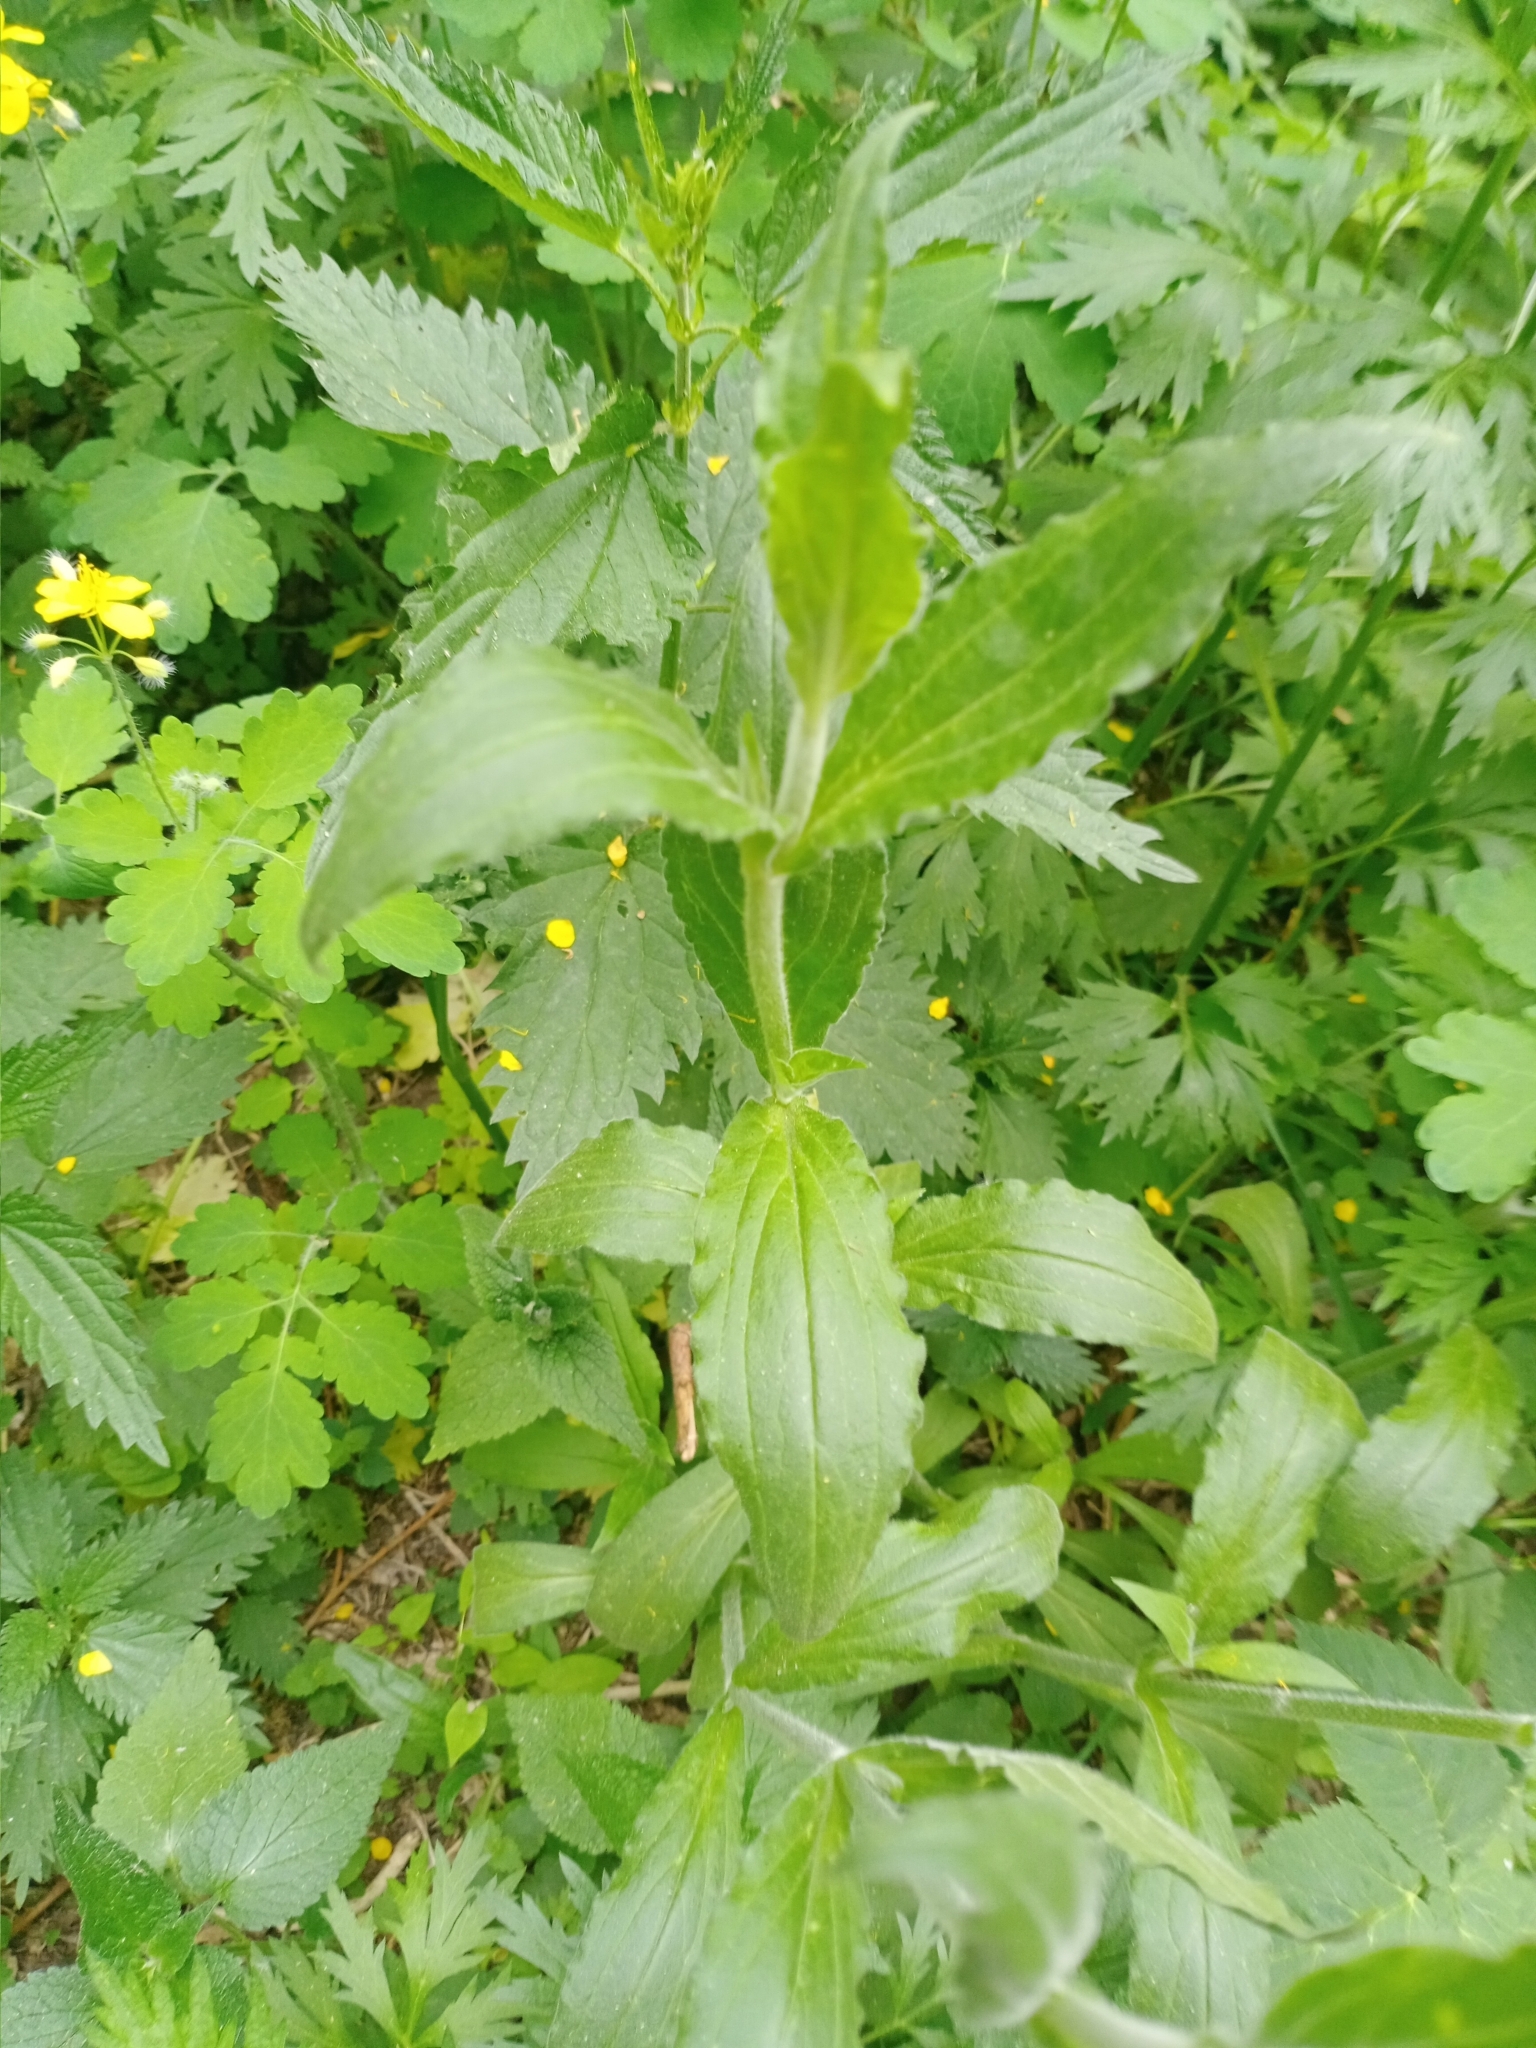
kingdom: Plantae
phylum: Tracheophyta
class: Magnoliopsida
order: Caryophyllales
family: Caryophyllaceae
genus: Silene
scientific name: Silene latifolia
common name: White campion
